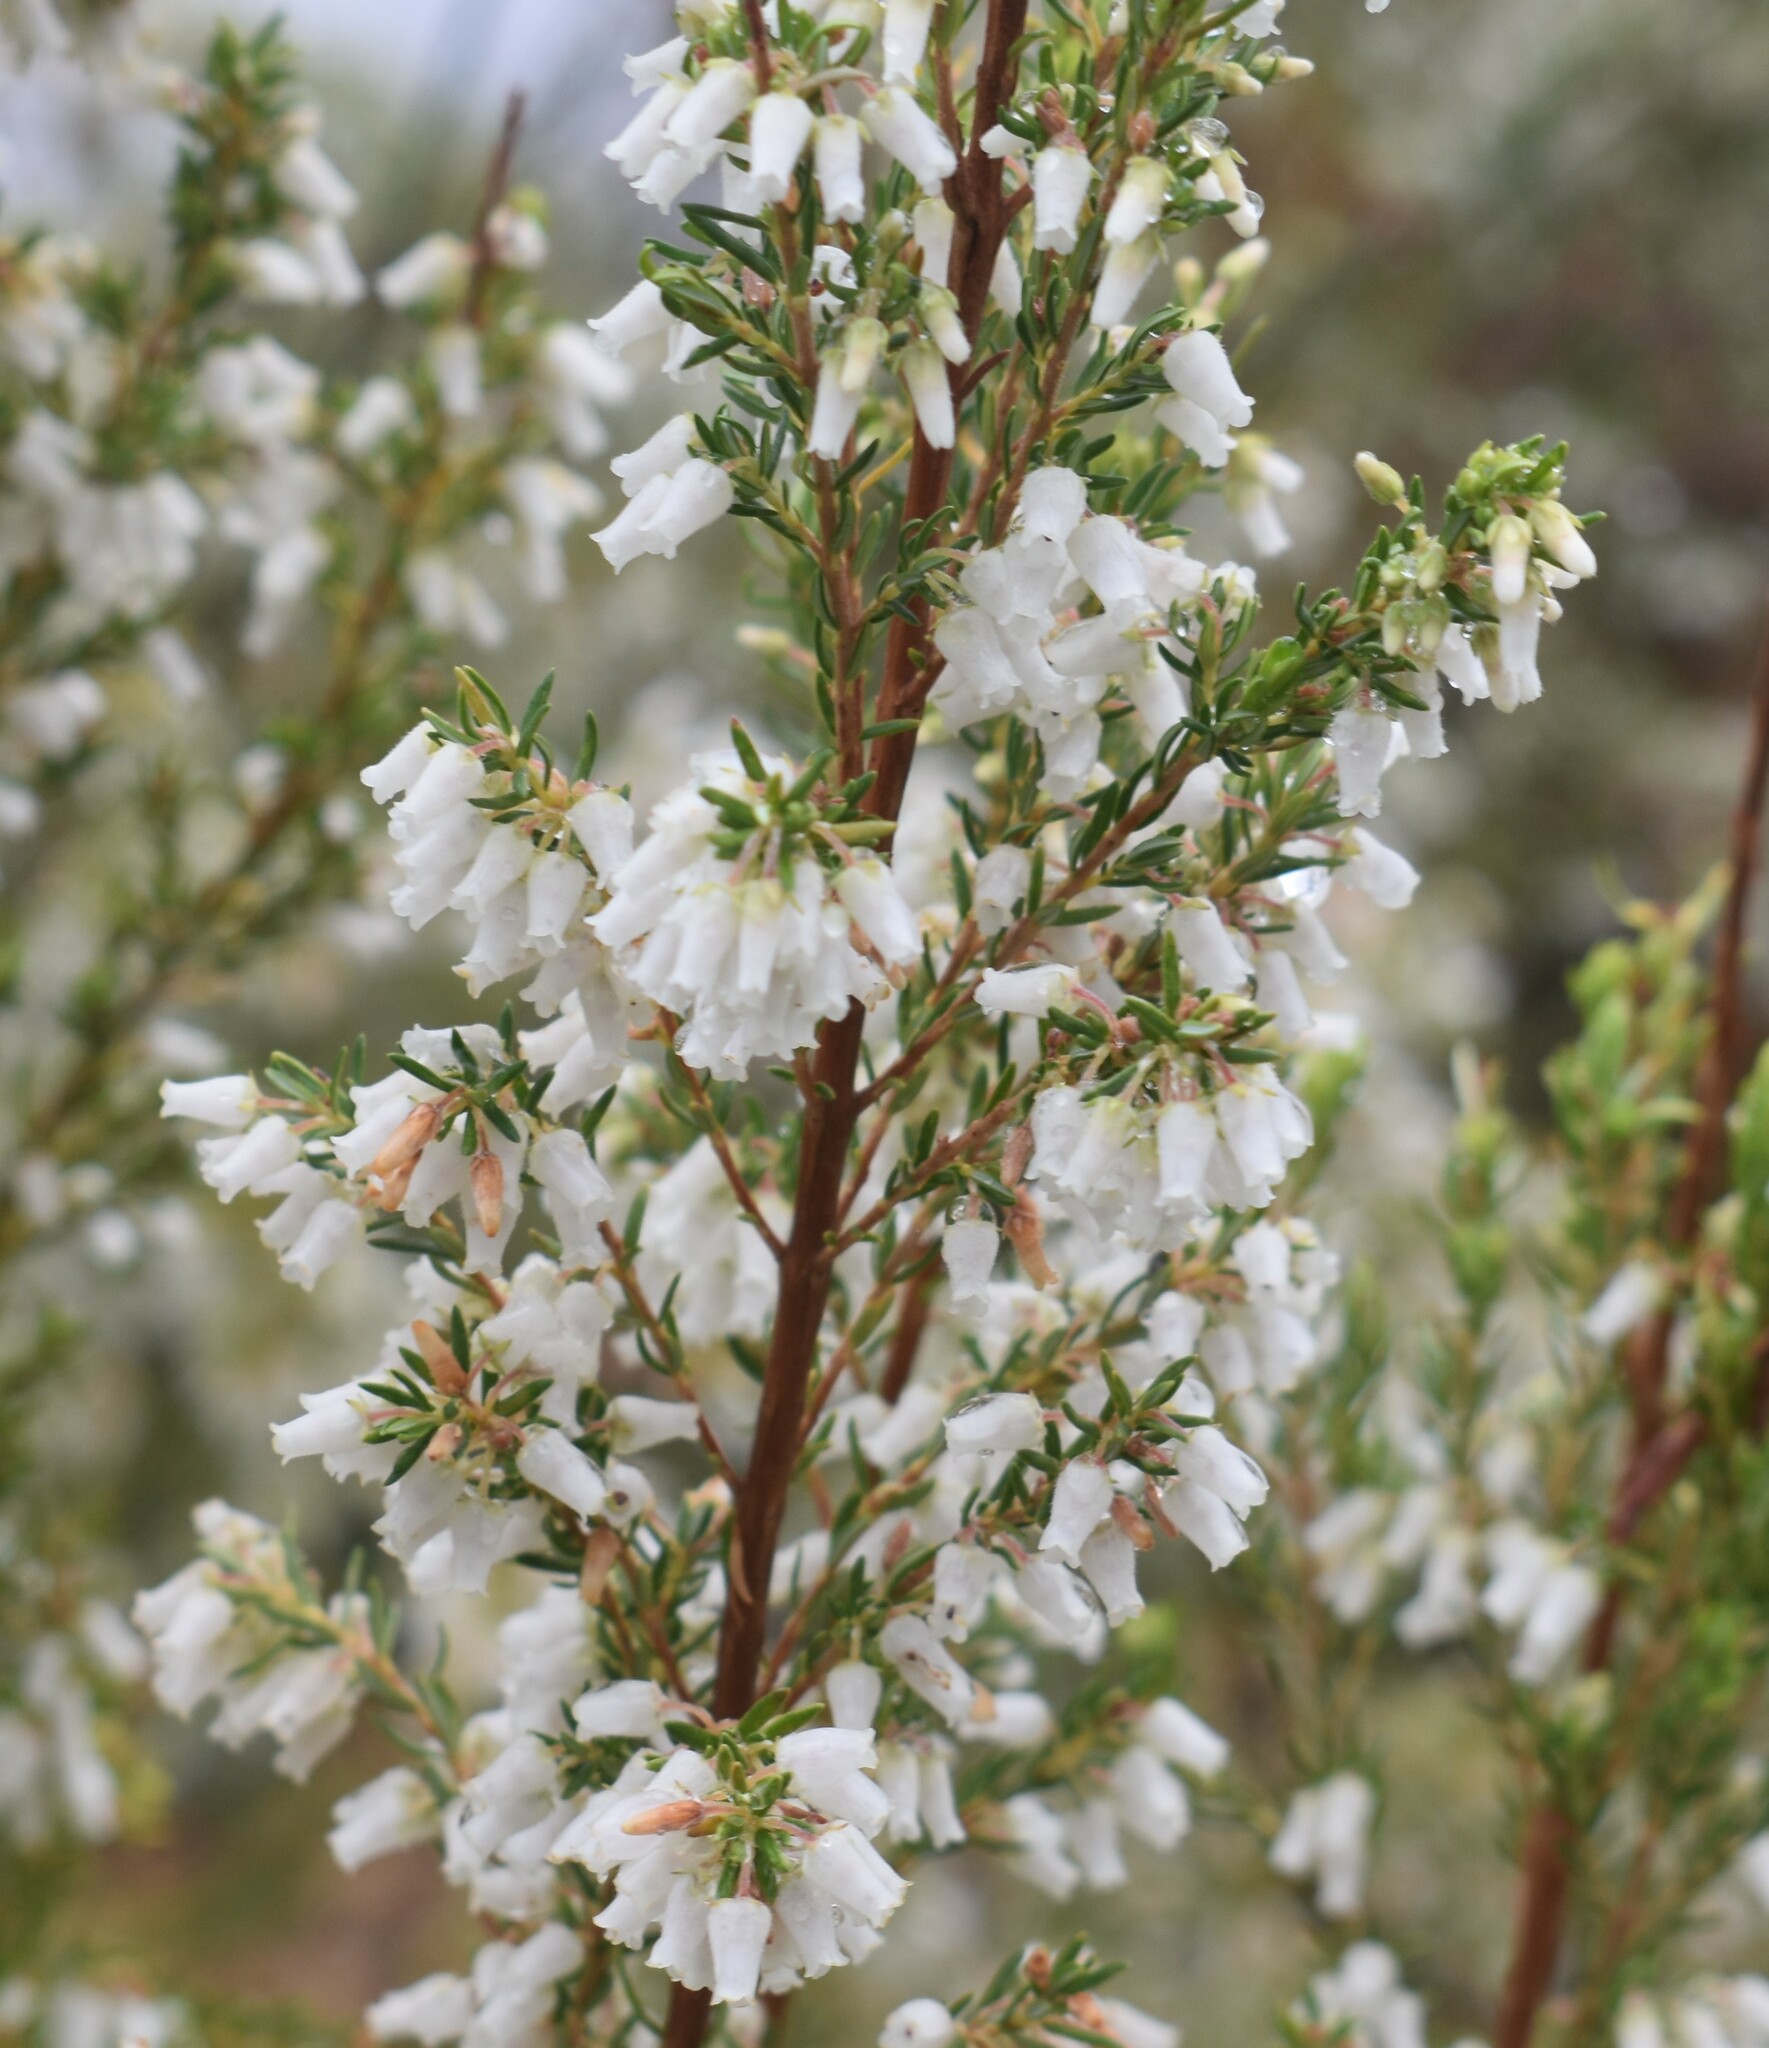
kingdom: Plantae
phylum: Tracheophyta
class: Magnoliopsida
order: Ericales
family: Ericaceae
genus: Erica
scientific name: Erica caffra
